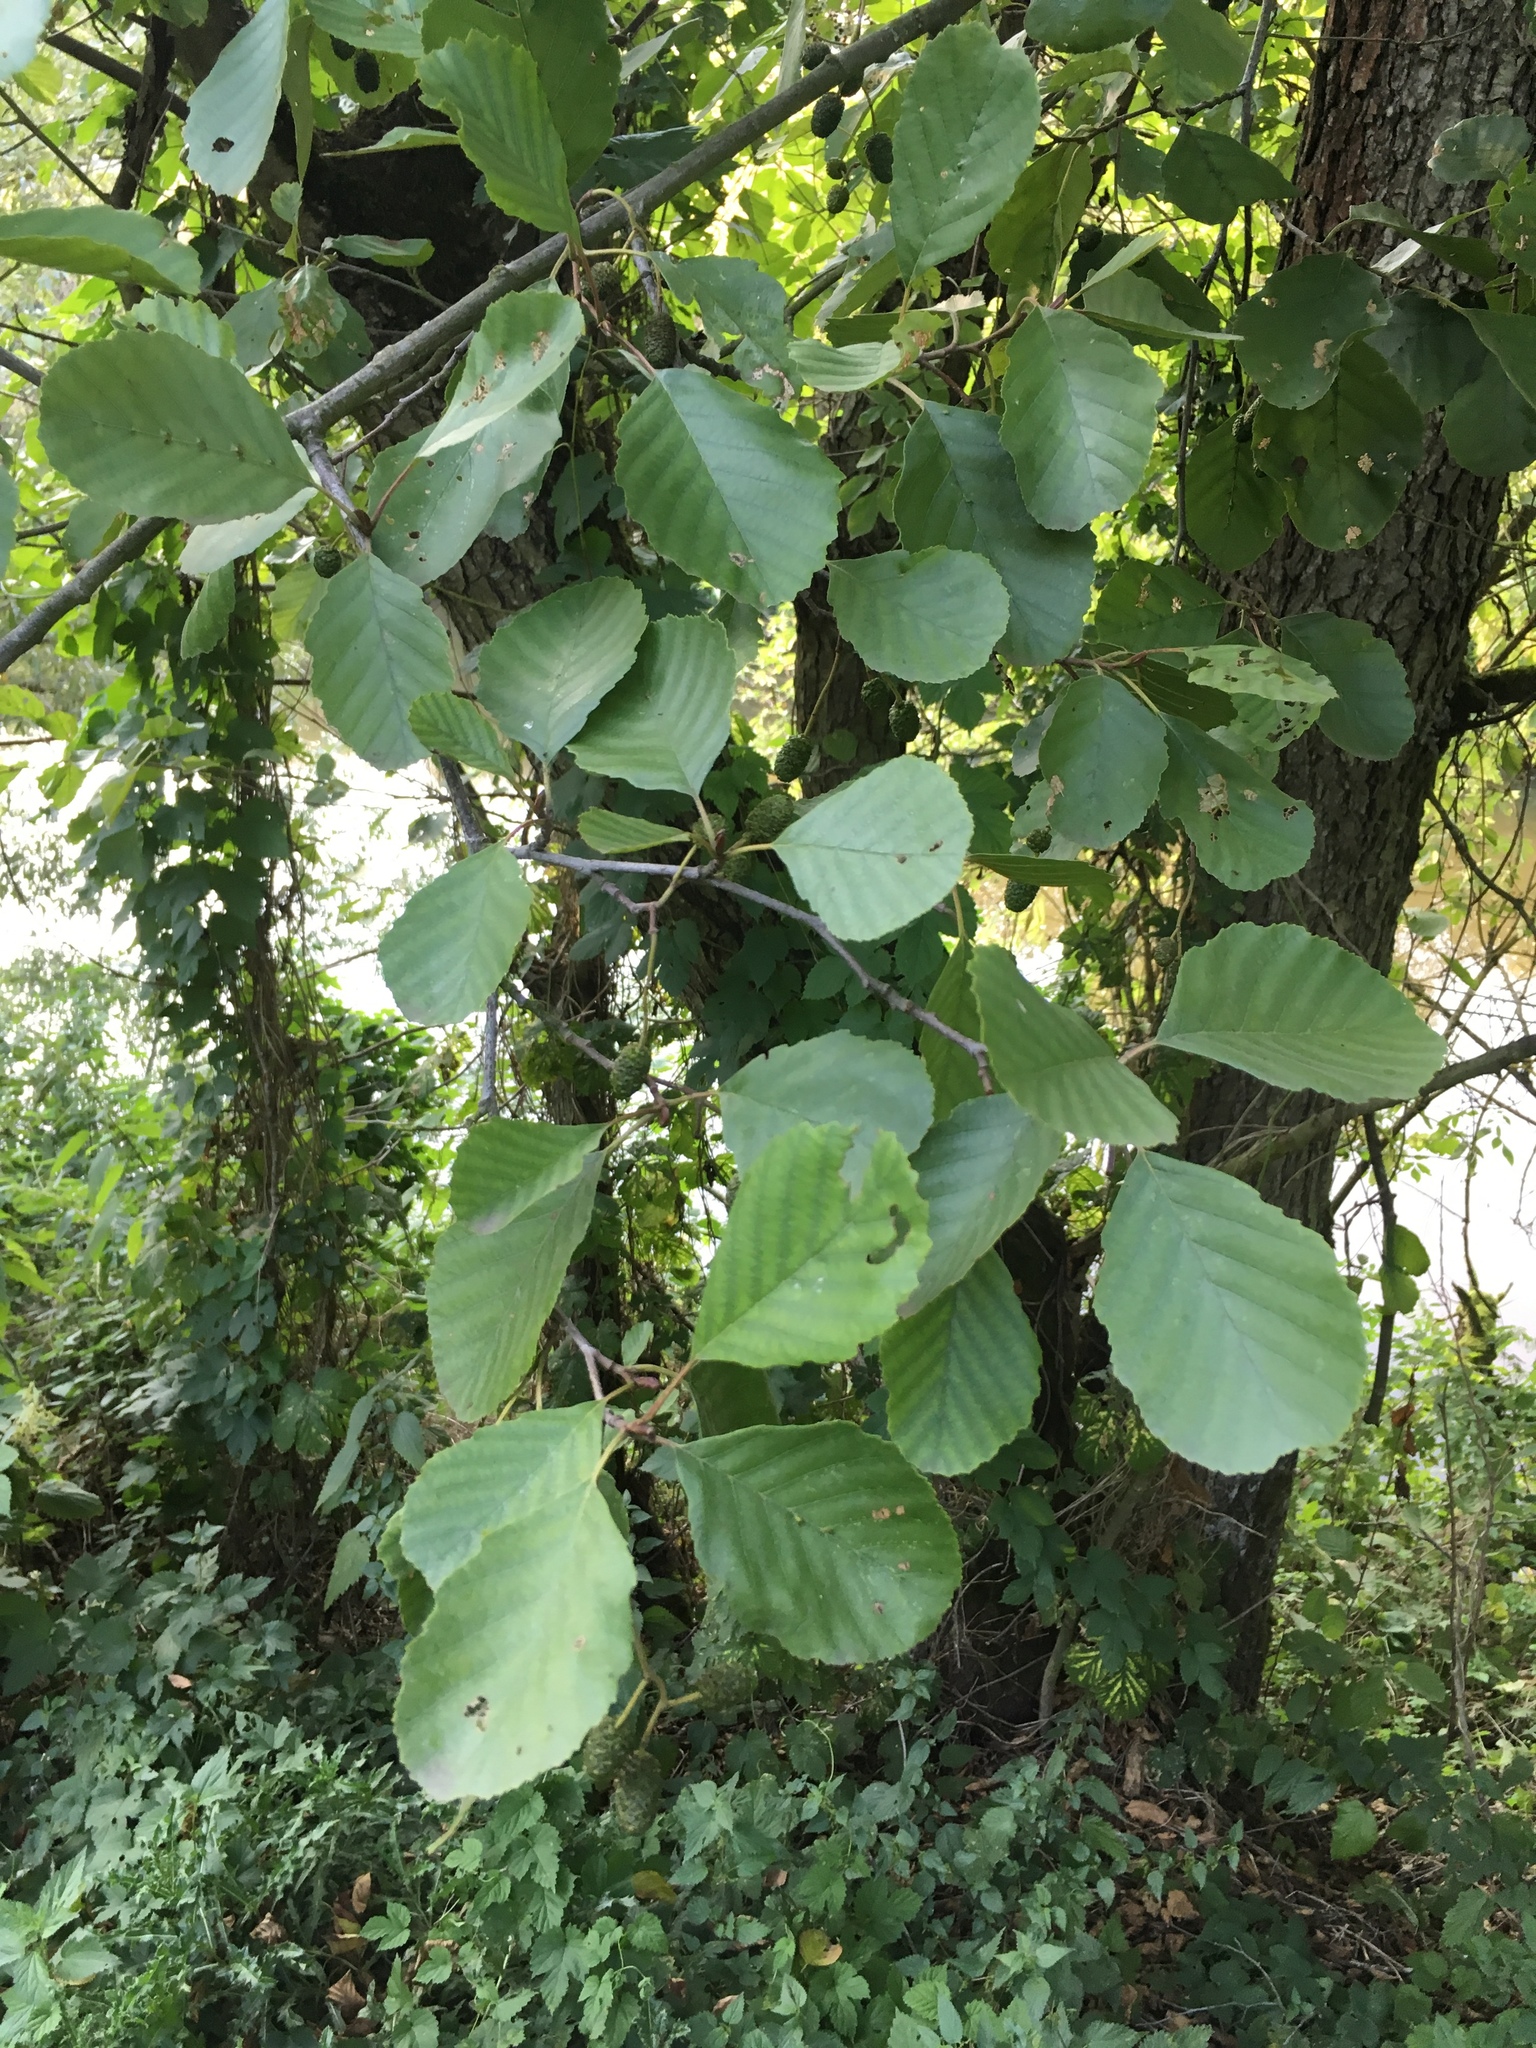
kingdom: Plantae
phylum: Tracheophyta
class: Magnoliopsida
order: Fagales
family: Betulaceae
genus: Alnus
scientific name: Alnus glutinosa
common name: Black alder
